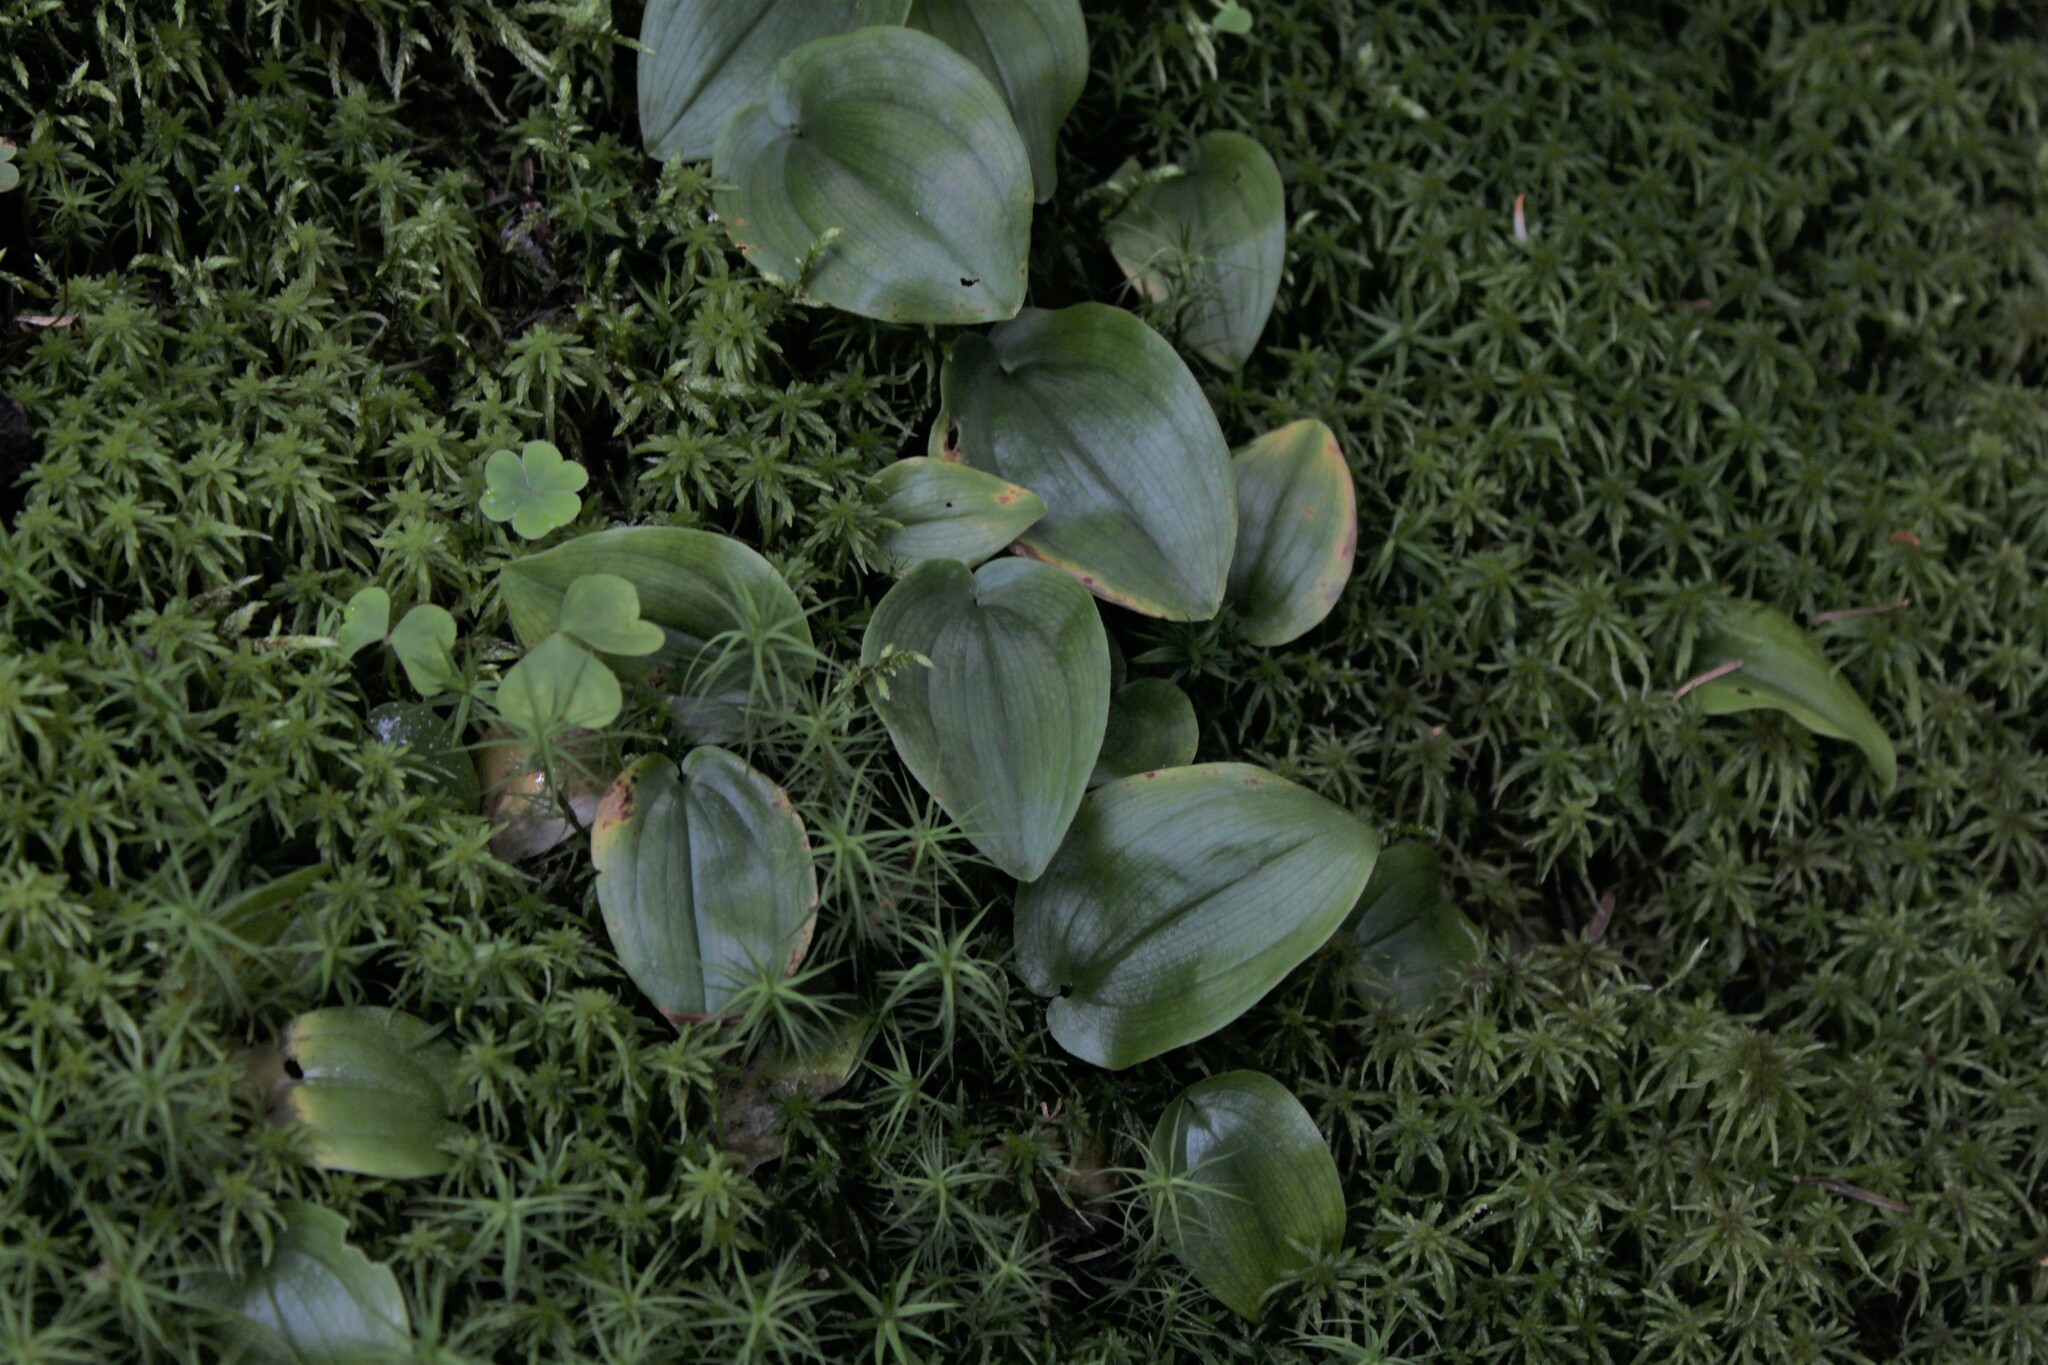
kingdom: Plantae
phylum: Tracheophyta
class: Liliopsida
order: Asparagales
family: Asparagaceae
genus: Maianthemum
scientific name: Maianthemum canadense
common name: False lily-of-the-valley
